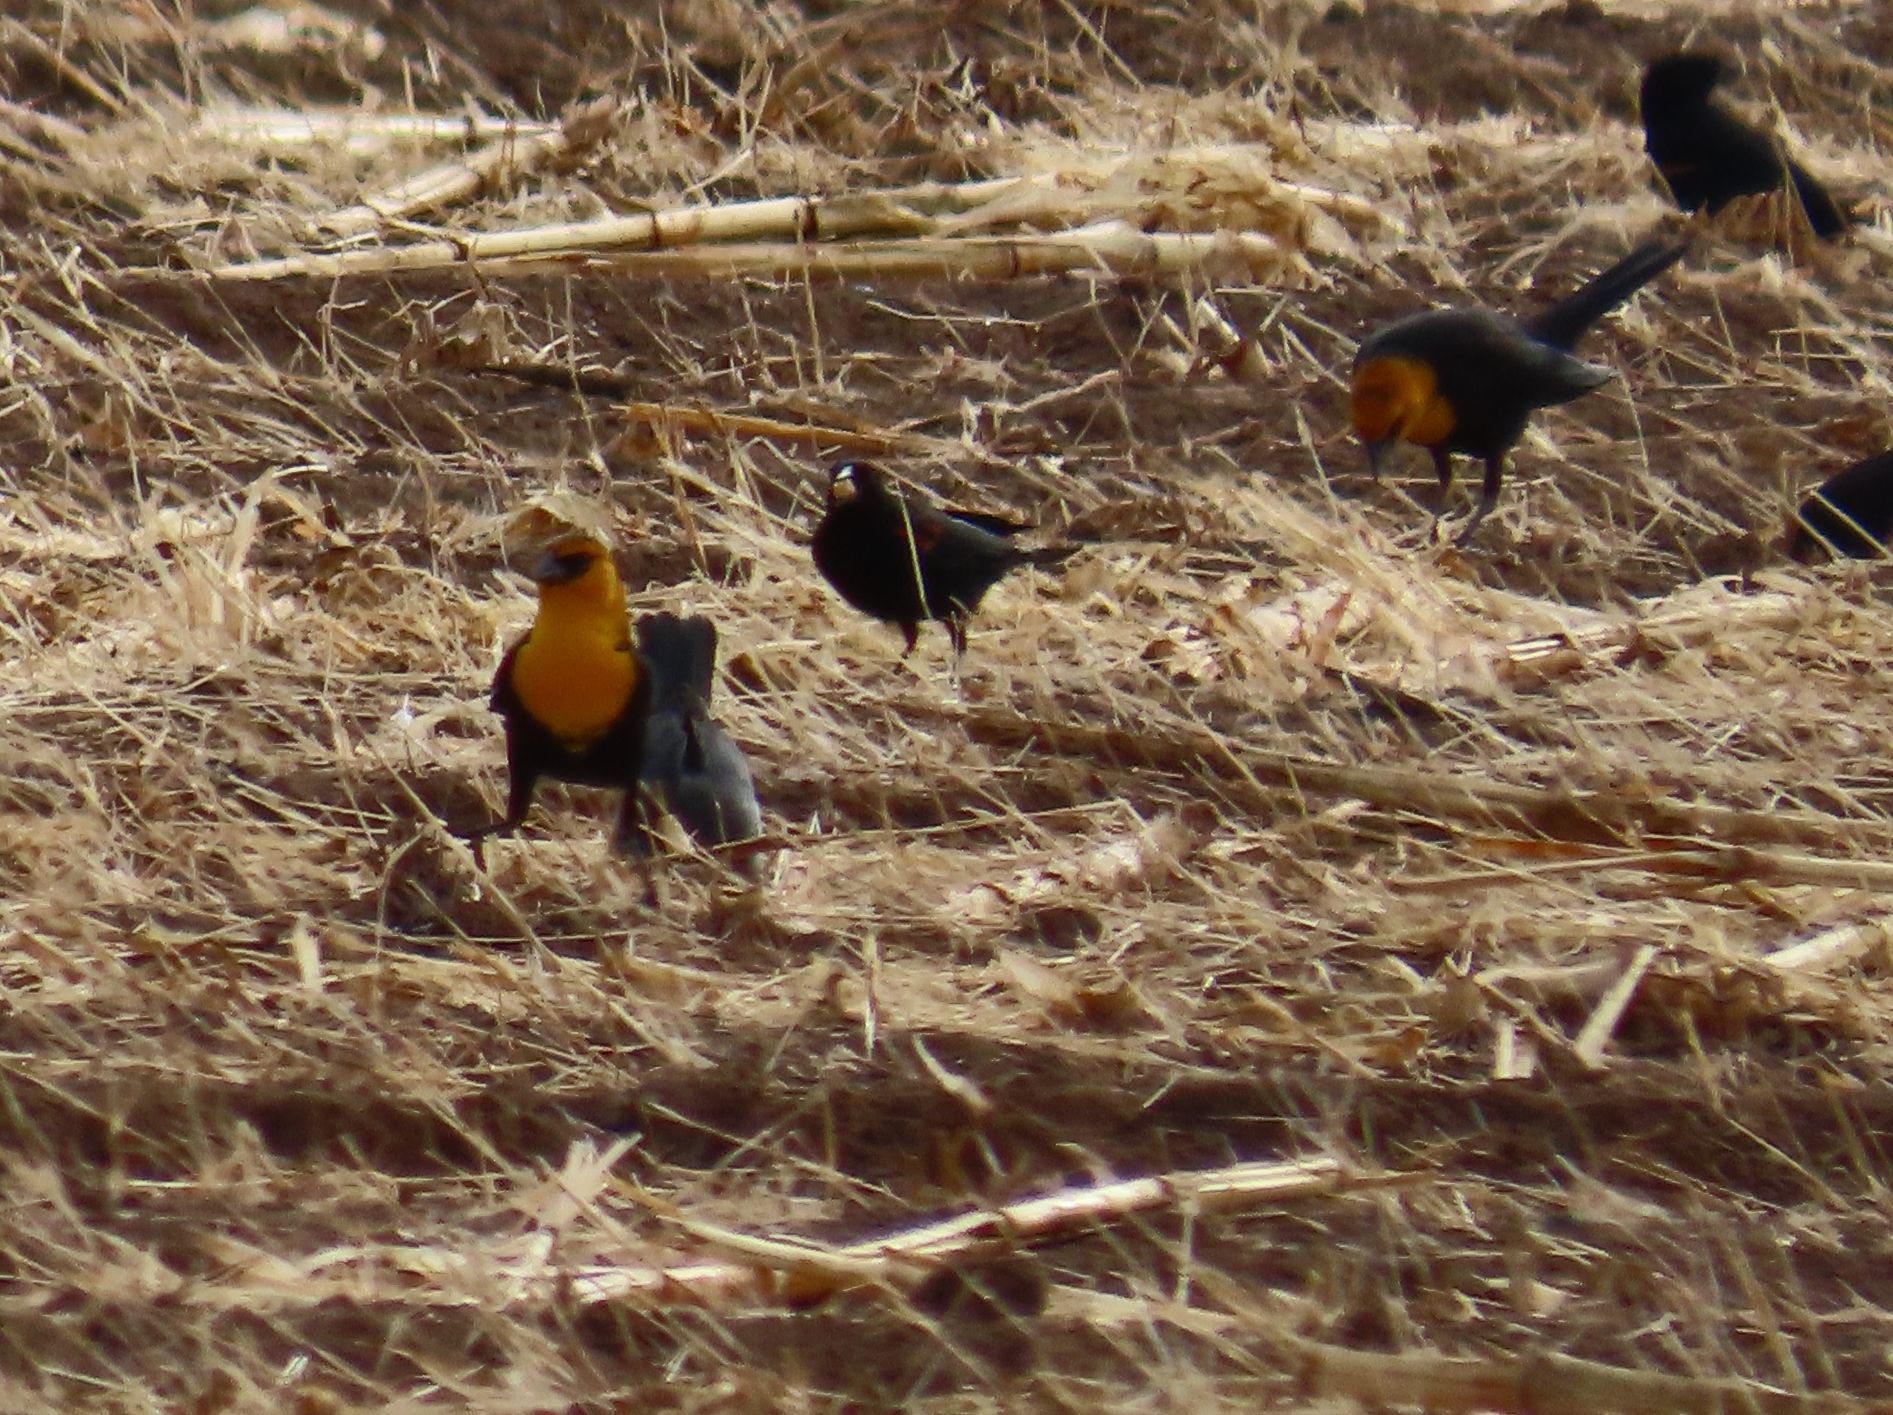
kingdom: Animalia
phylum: Chordata
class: Aves
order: Passeriformes
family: Icteridae
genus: Xanthocephalus
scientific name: Xanthocephalus xanthocephalus
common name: Yellow-headed blackbird
